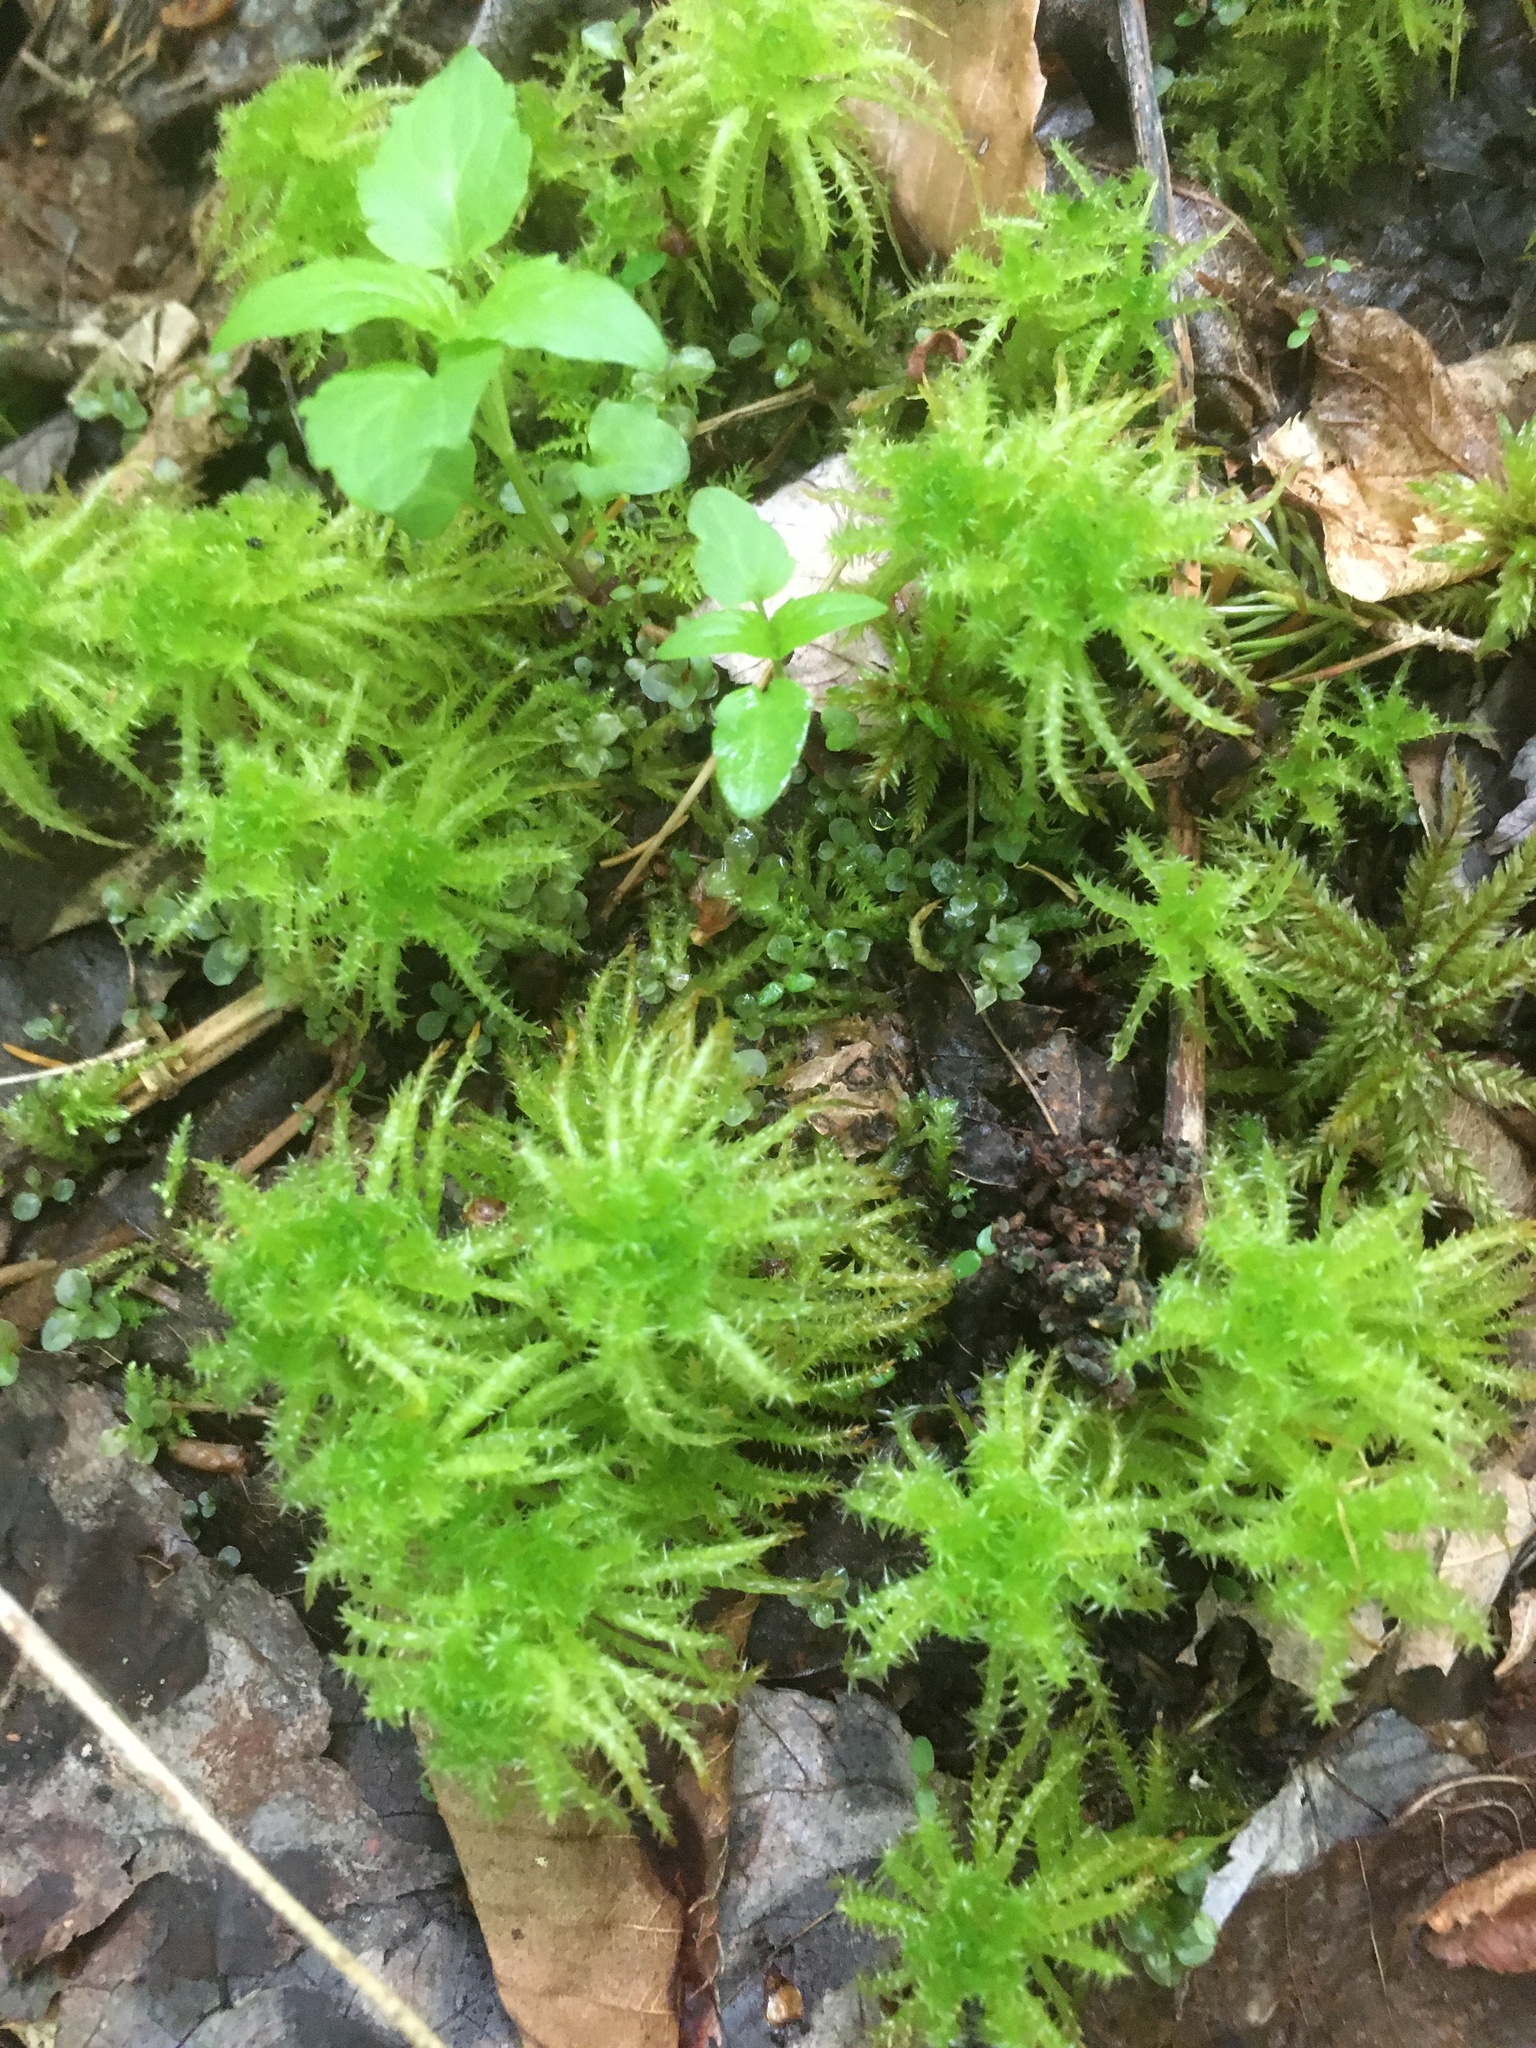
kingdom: Plantae
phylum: Bryophyta
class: Sphagnopsida
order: Sphagnales
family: Sphagnaceae
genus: Sphagnum
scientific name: Sphagnum squarrosum
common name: Shaggy peat moss
